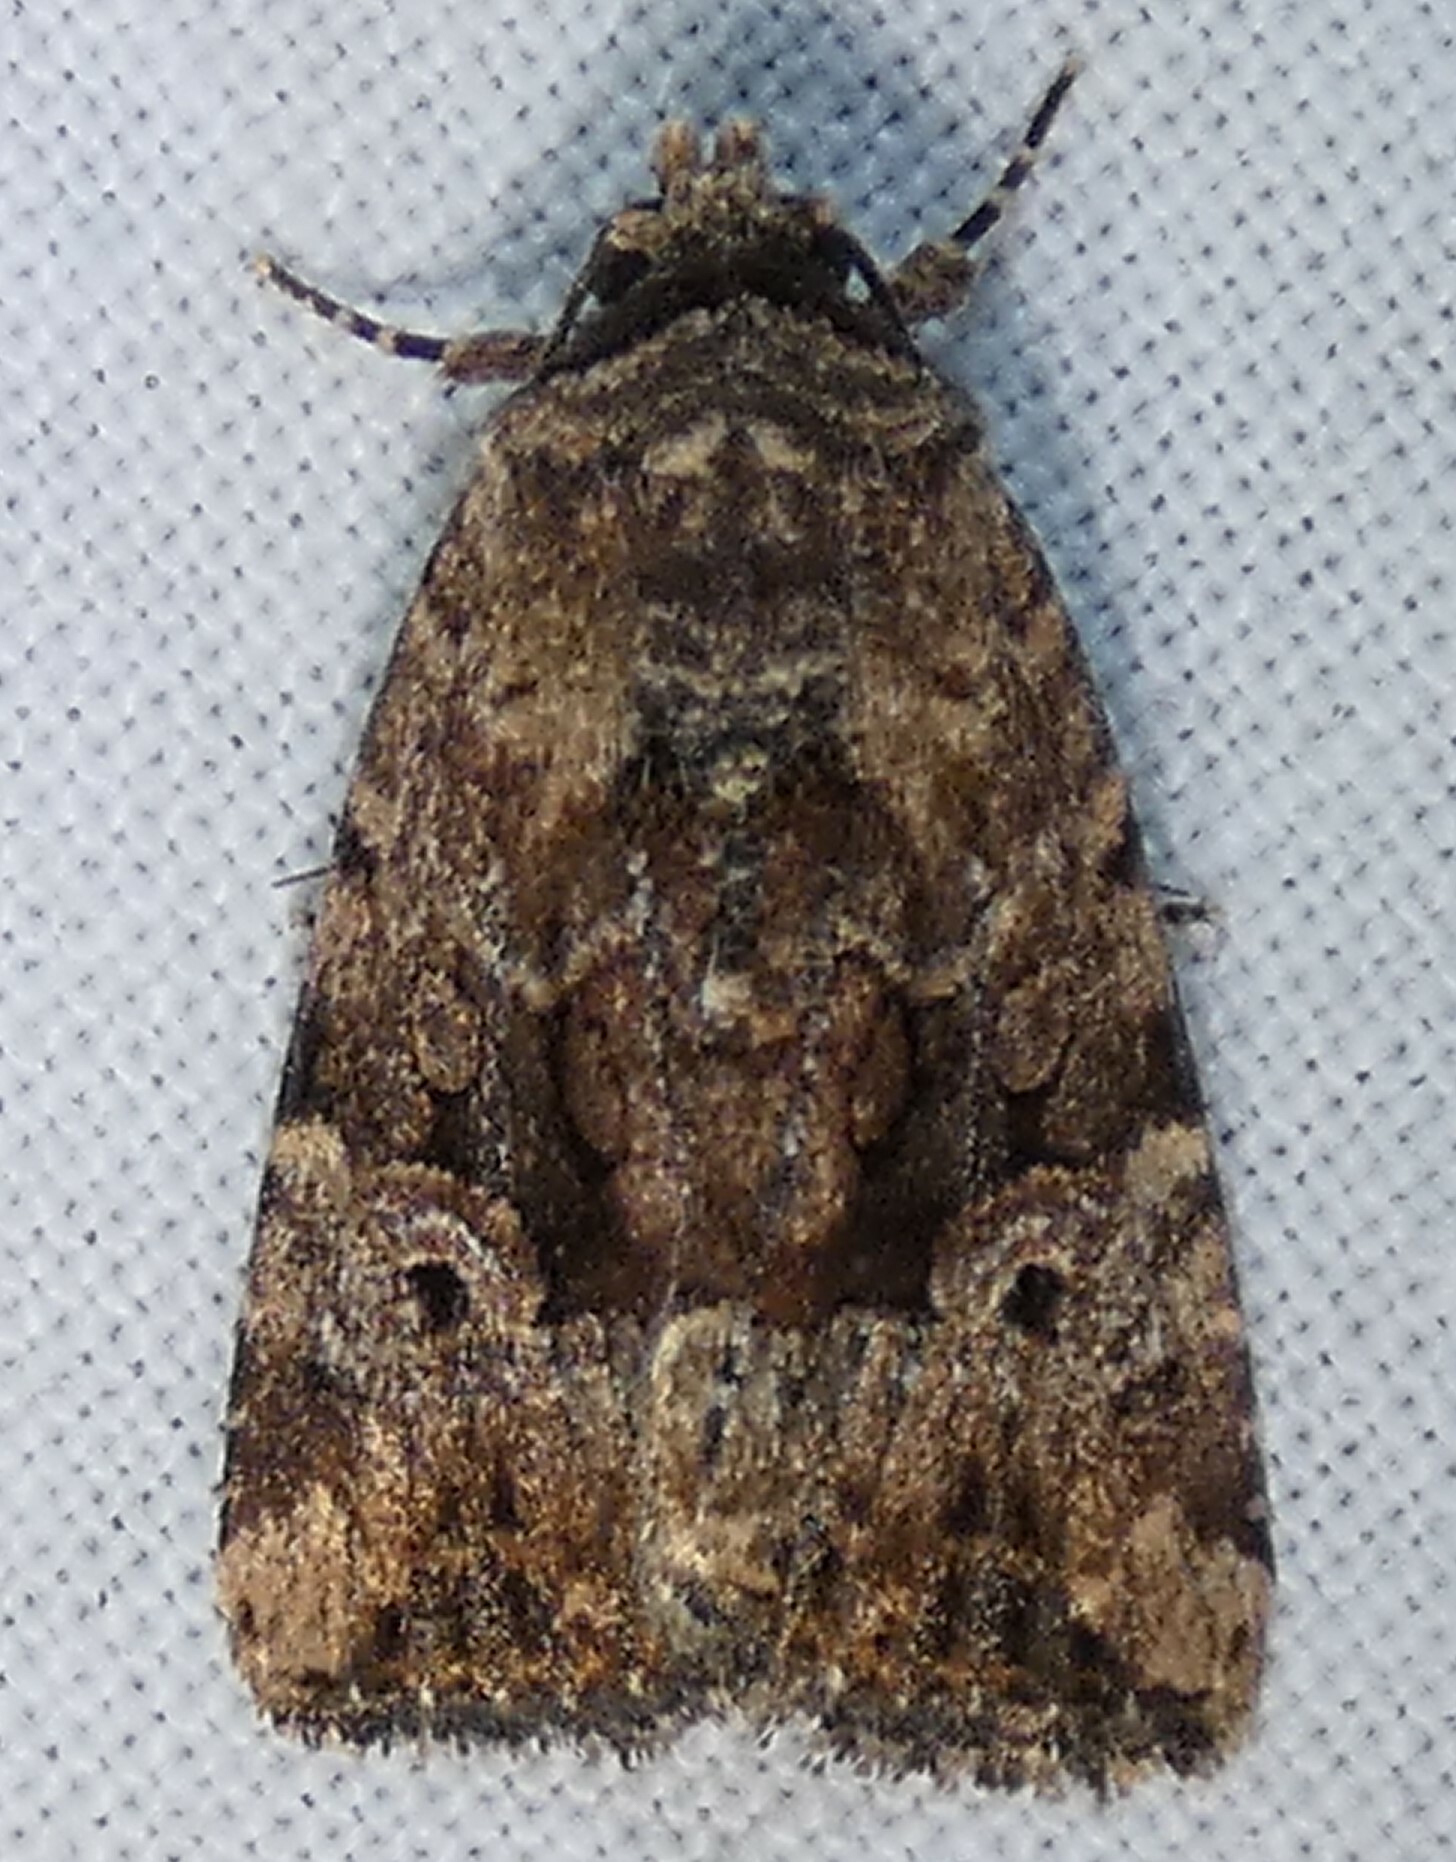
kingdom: Animalia
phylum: Arthropoda
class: Insecta
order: Lepidoptera
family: Noctuidae
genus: Elaphria
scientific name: Elaphria exesa
